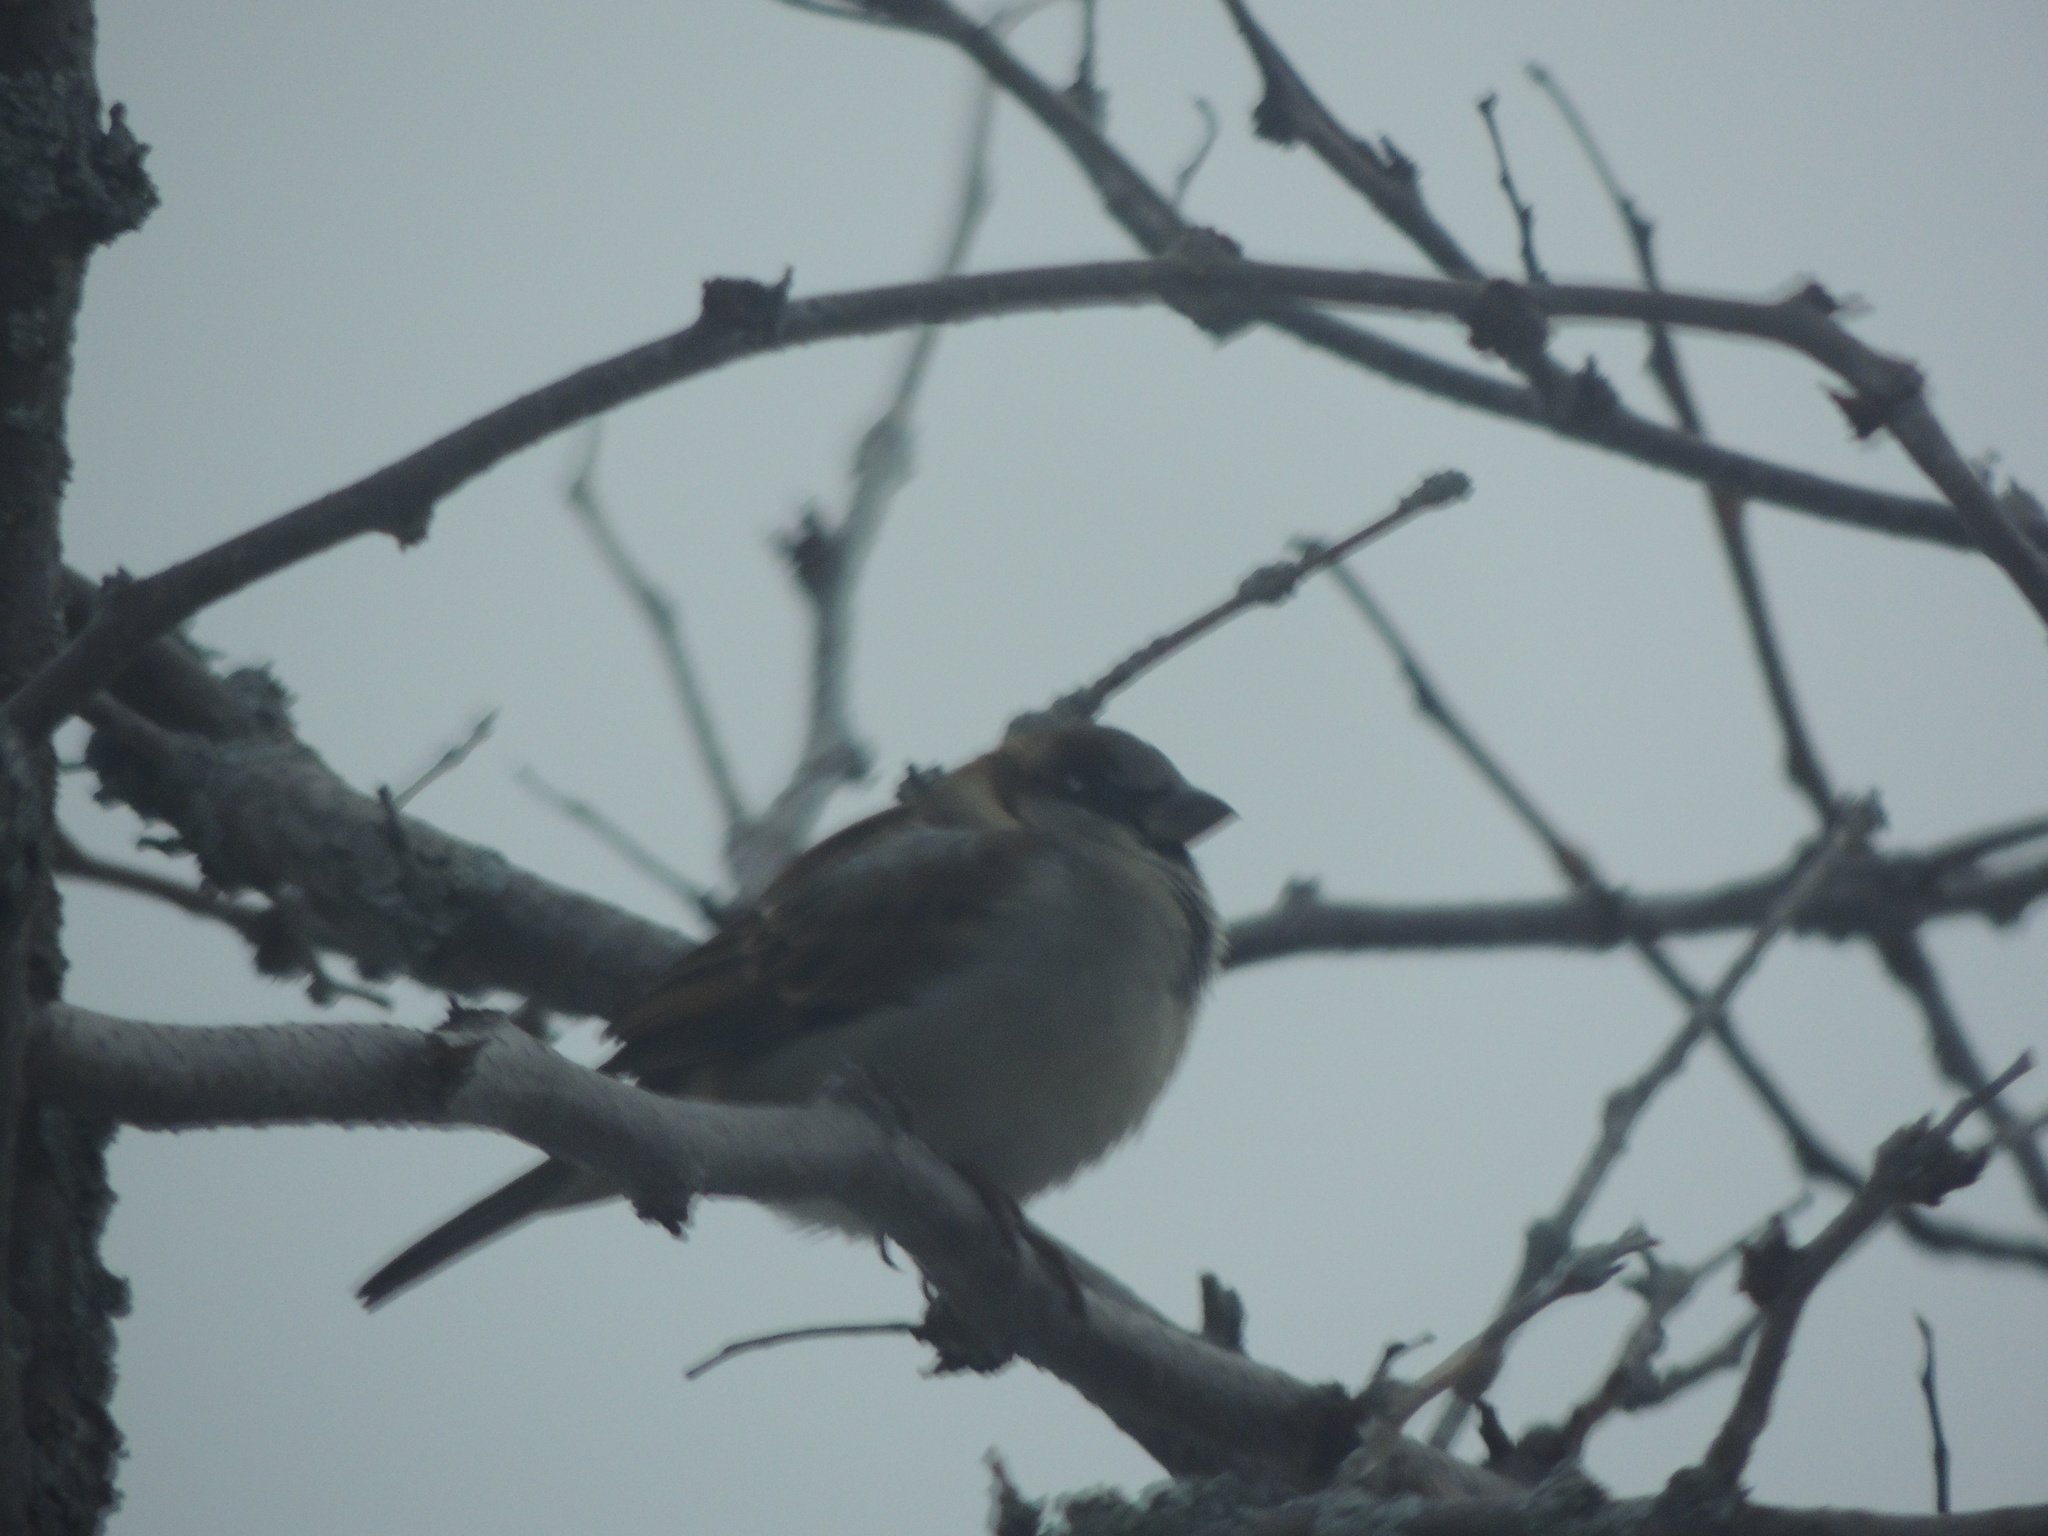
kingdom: Animalia
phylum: Chordata
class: Aves
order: Passeriformes
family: Passeridae
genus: Passer
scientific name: Passer domesticus
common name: House sparrow
